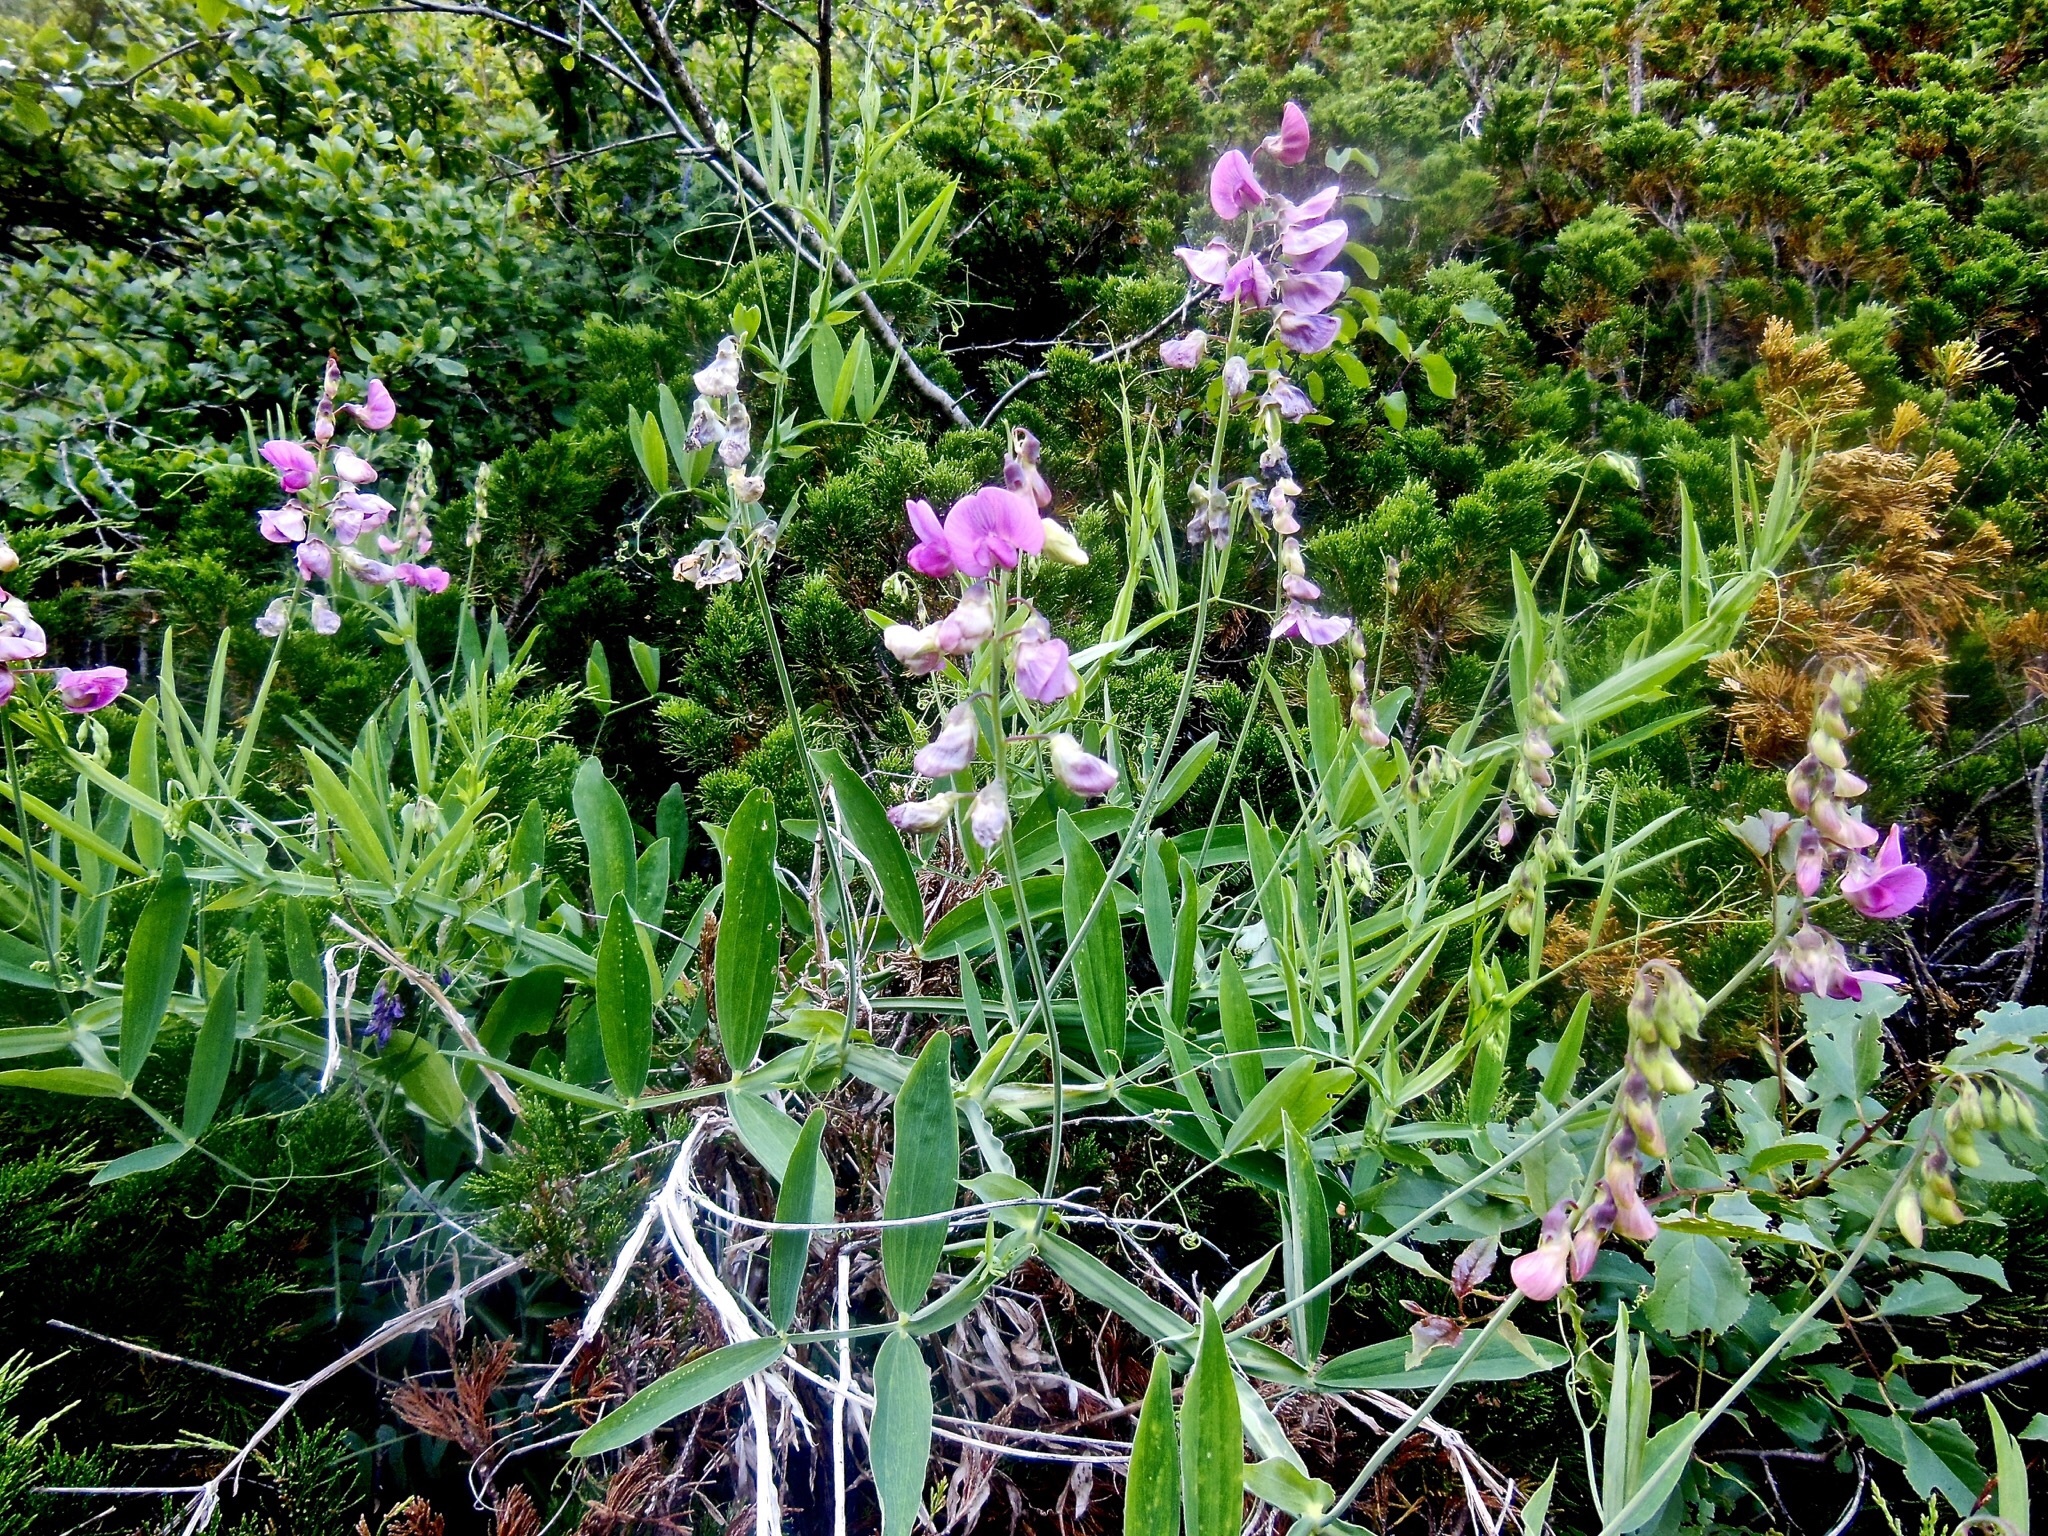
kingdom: Plantae
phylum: Tracheophyta
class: Magnoliopsida
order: Fabales
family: Fabaceae
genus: Lathyrus
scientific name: Lathyrus heterophyllus
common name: Norfolk everlasting-pea
